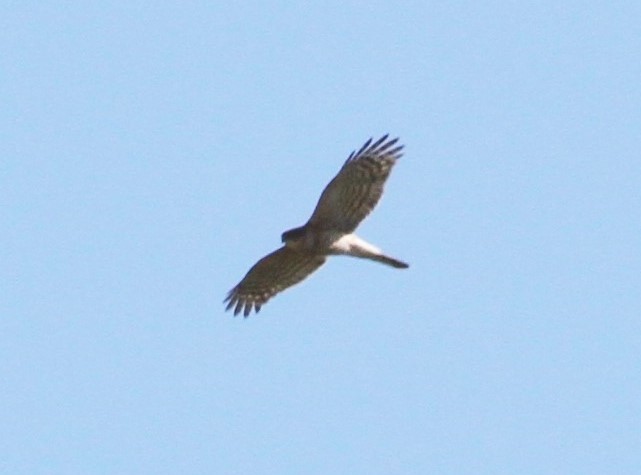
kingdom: Animalia
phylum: Chordata
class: Aves
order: Accipitriformes
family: Accipitridae
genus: Accipiter
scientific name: Accipiter nisus
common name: Eurasian sparrowhawk
